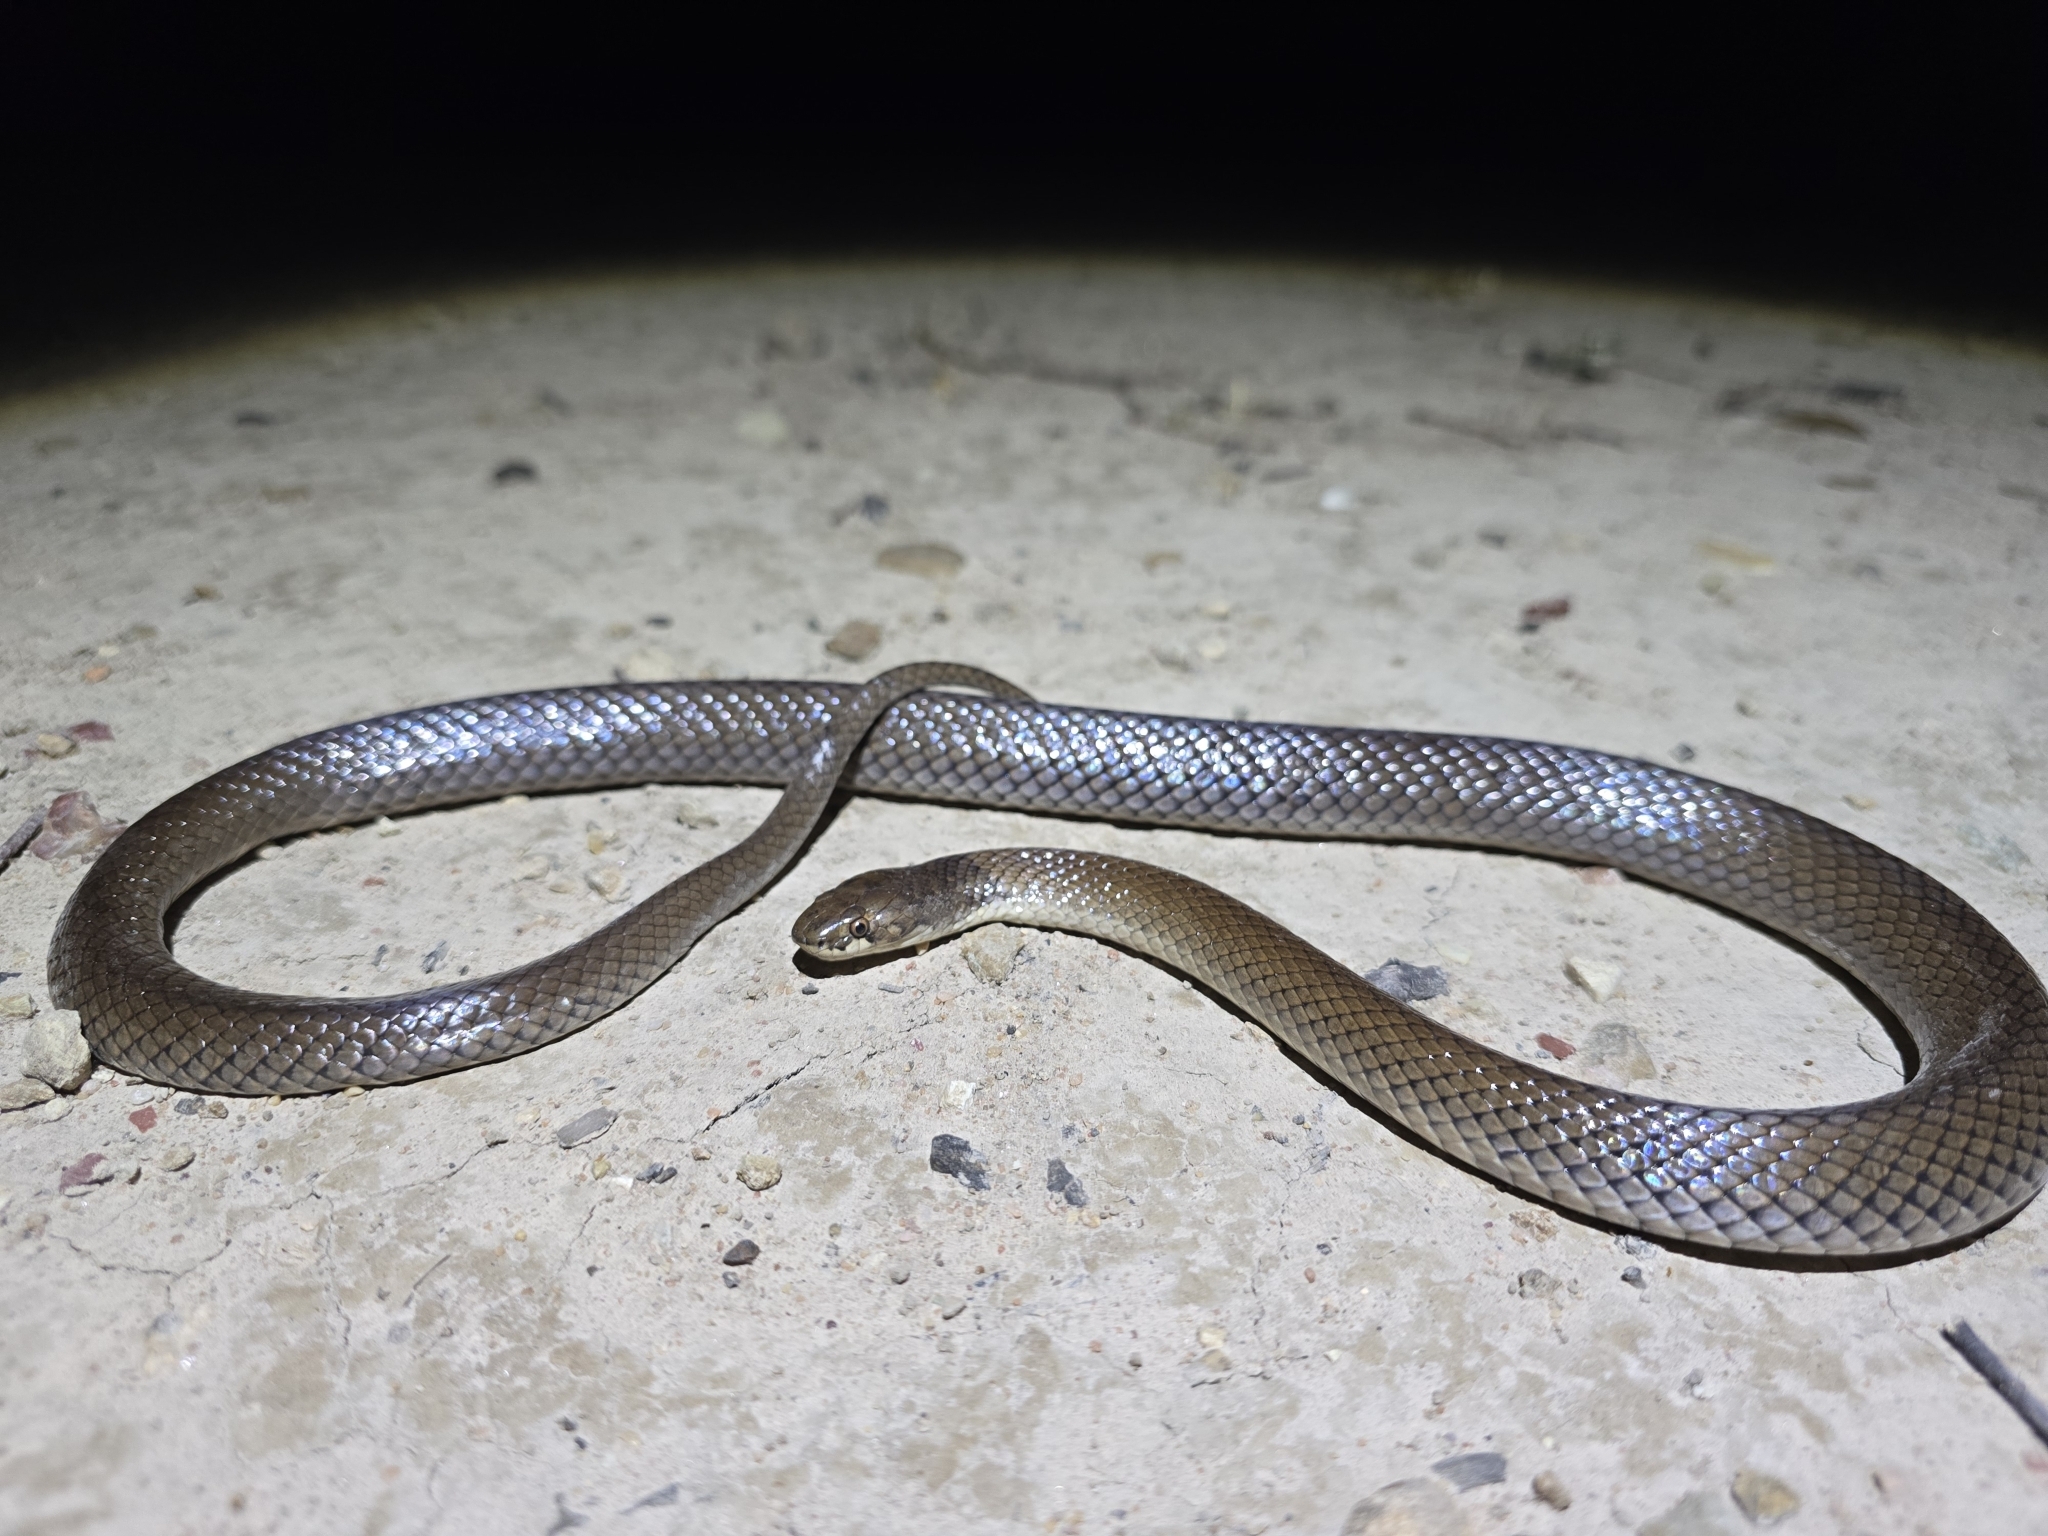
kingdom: Animalia
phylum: Chordata
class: Squamata
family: Elapidae
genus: Suta
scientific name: Suta suta
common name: Curl snake
